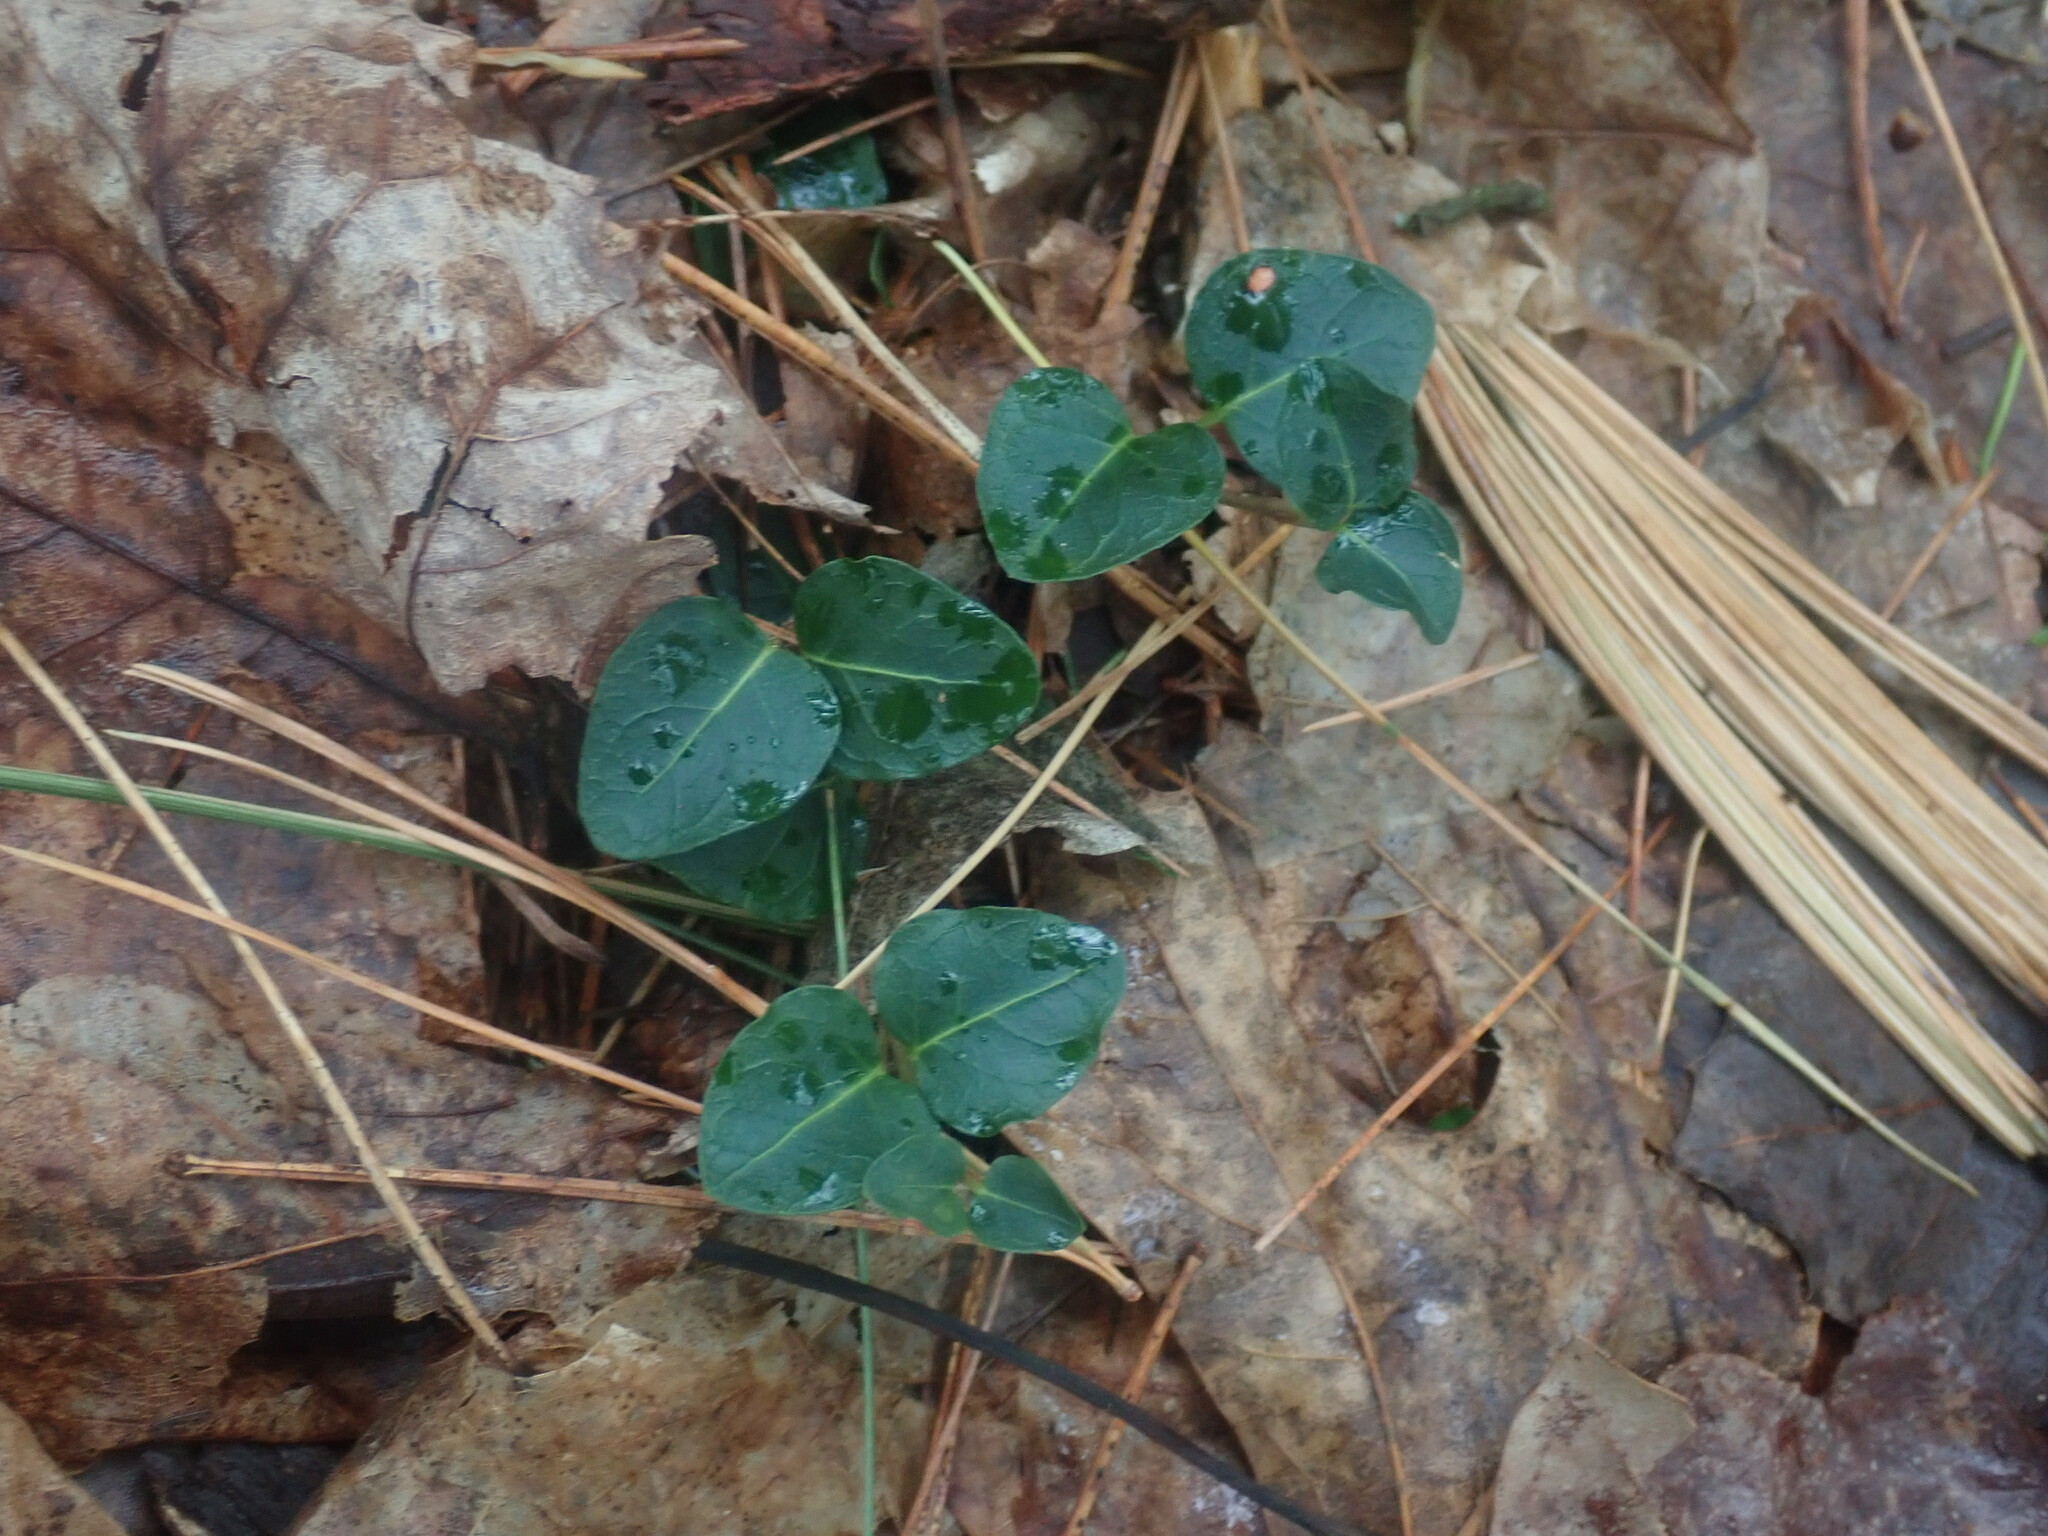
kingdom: Plantae
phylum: Tracheophyta
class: Magnoliopsida
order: Gentianales
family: Rubiaceae
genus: Mitchella
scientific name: Mitchella repens
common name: Partridge-berry
